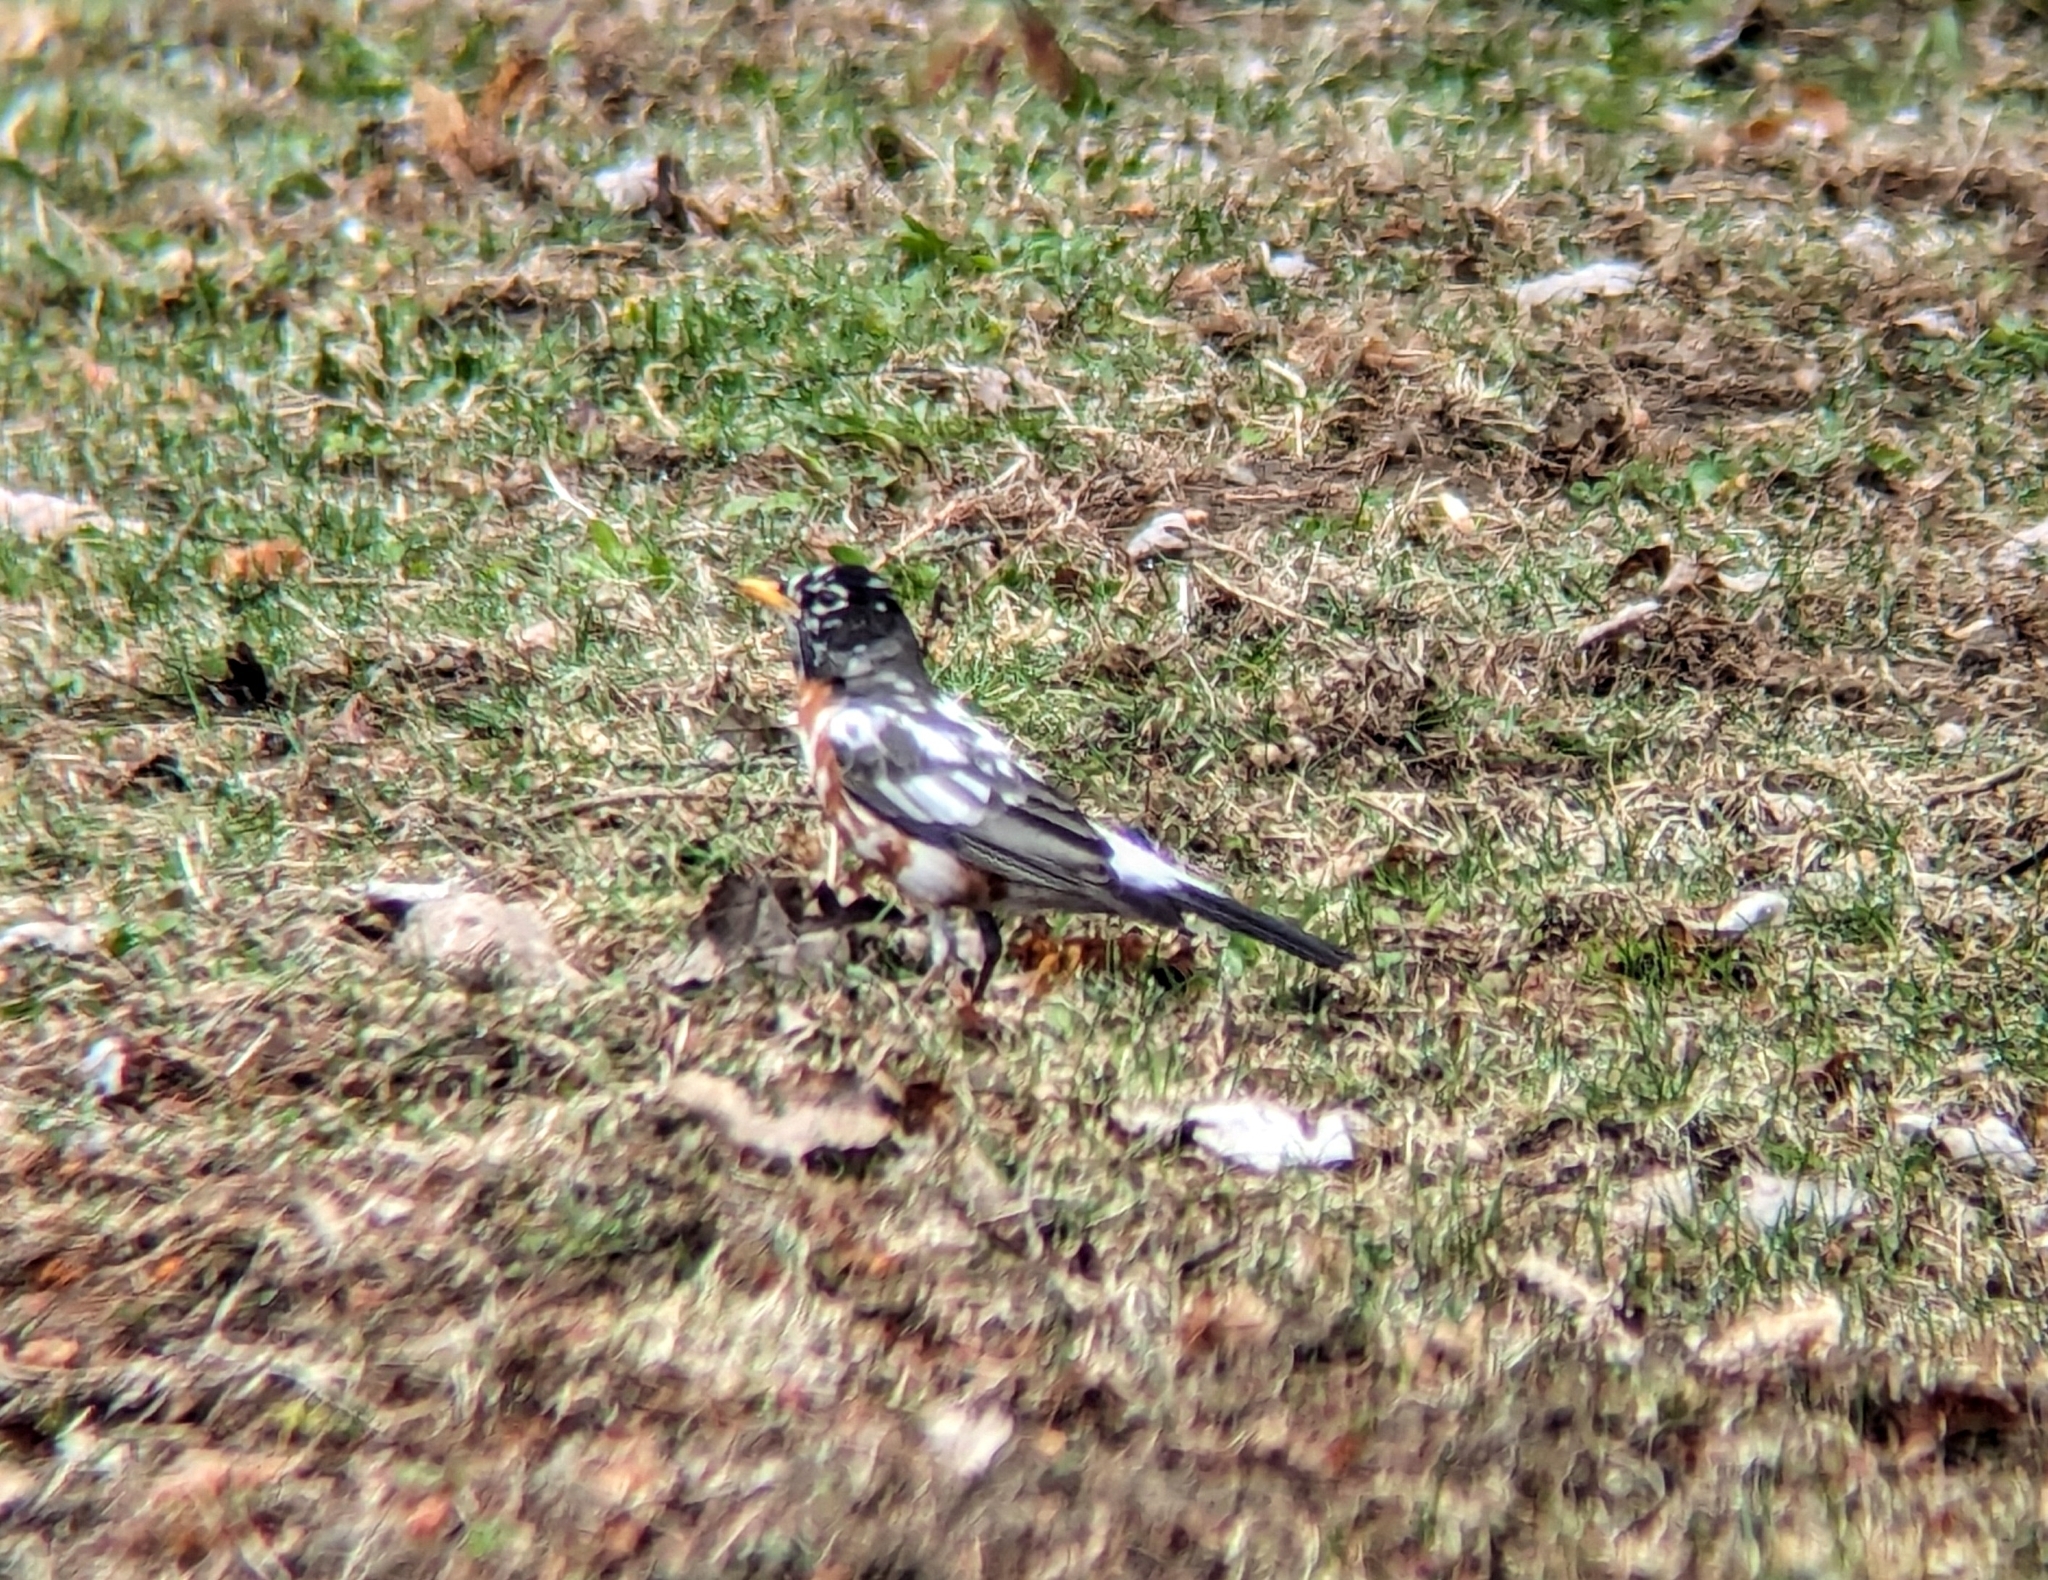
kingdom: Animalia
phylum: Chordata
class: Aves
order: Passeriformes
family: Turdidae
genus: Turdus
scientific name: Turdus migratorius
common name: American robin
